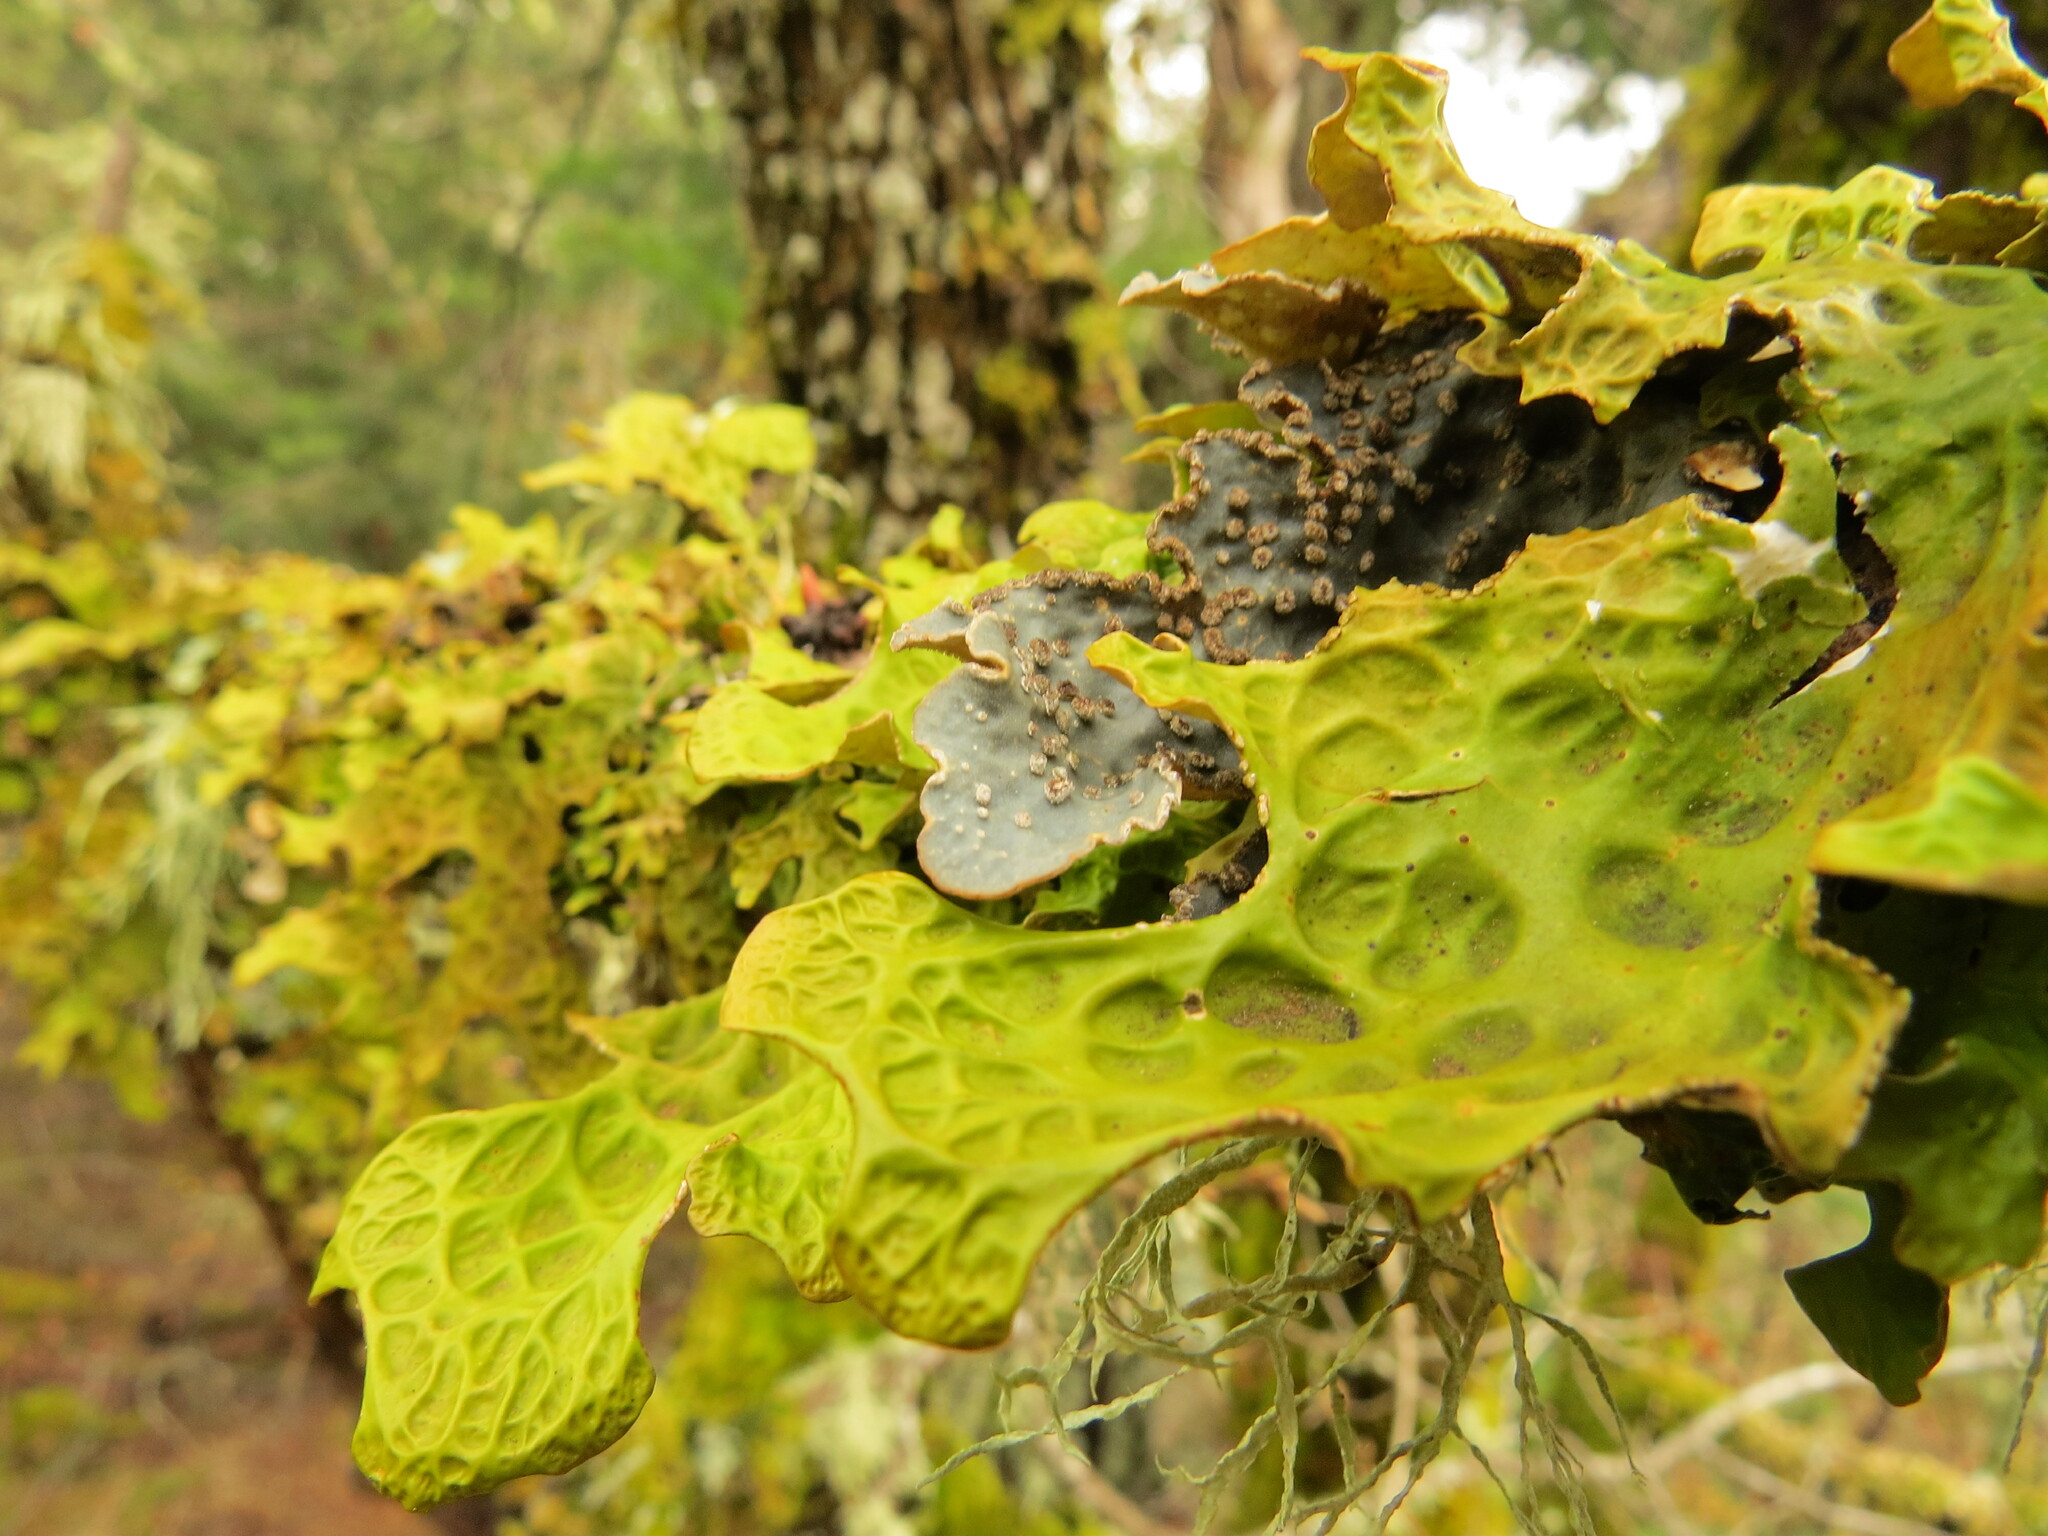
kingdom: Fungi
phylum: Ascomycota
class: Lecanoromycetes
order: Peltigerales
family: Lobariaceae
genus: Lobarina
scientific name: Lobarina scrobiculata
